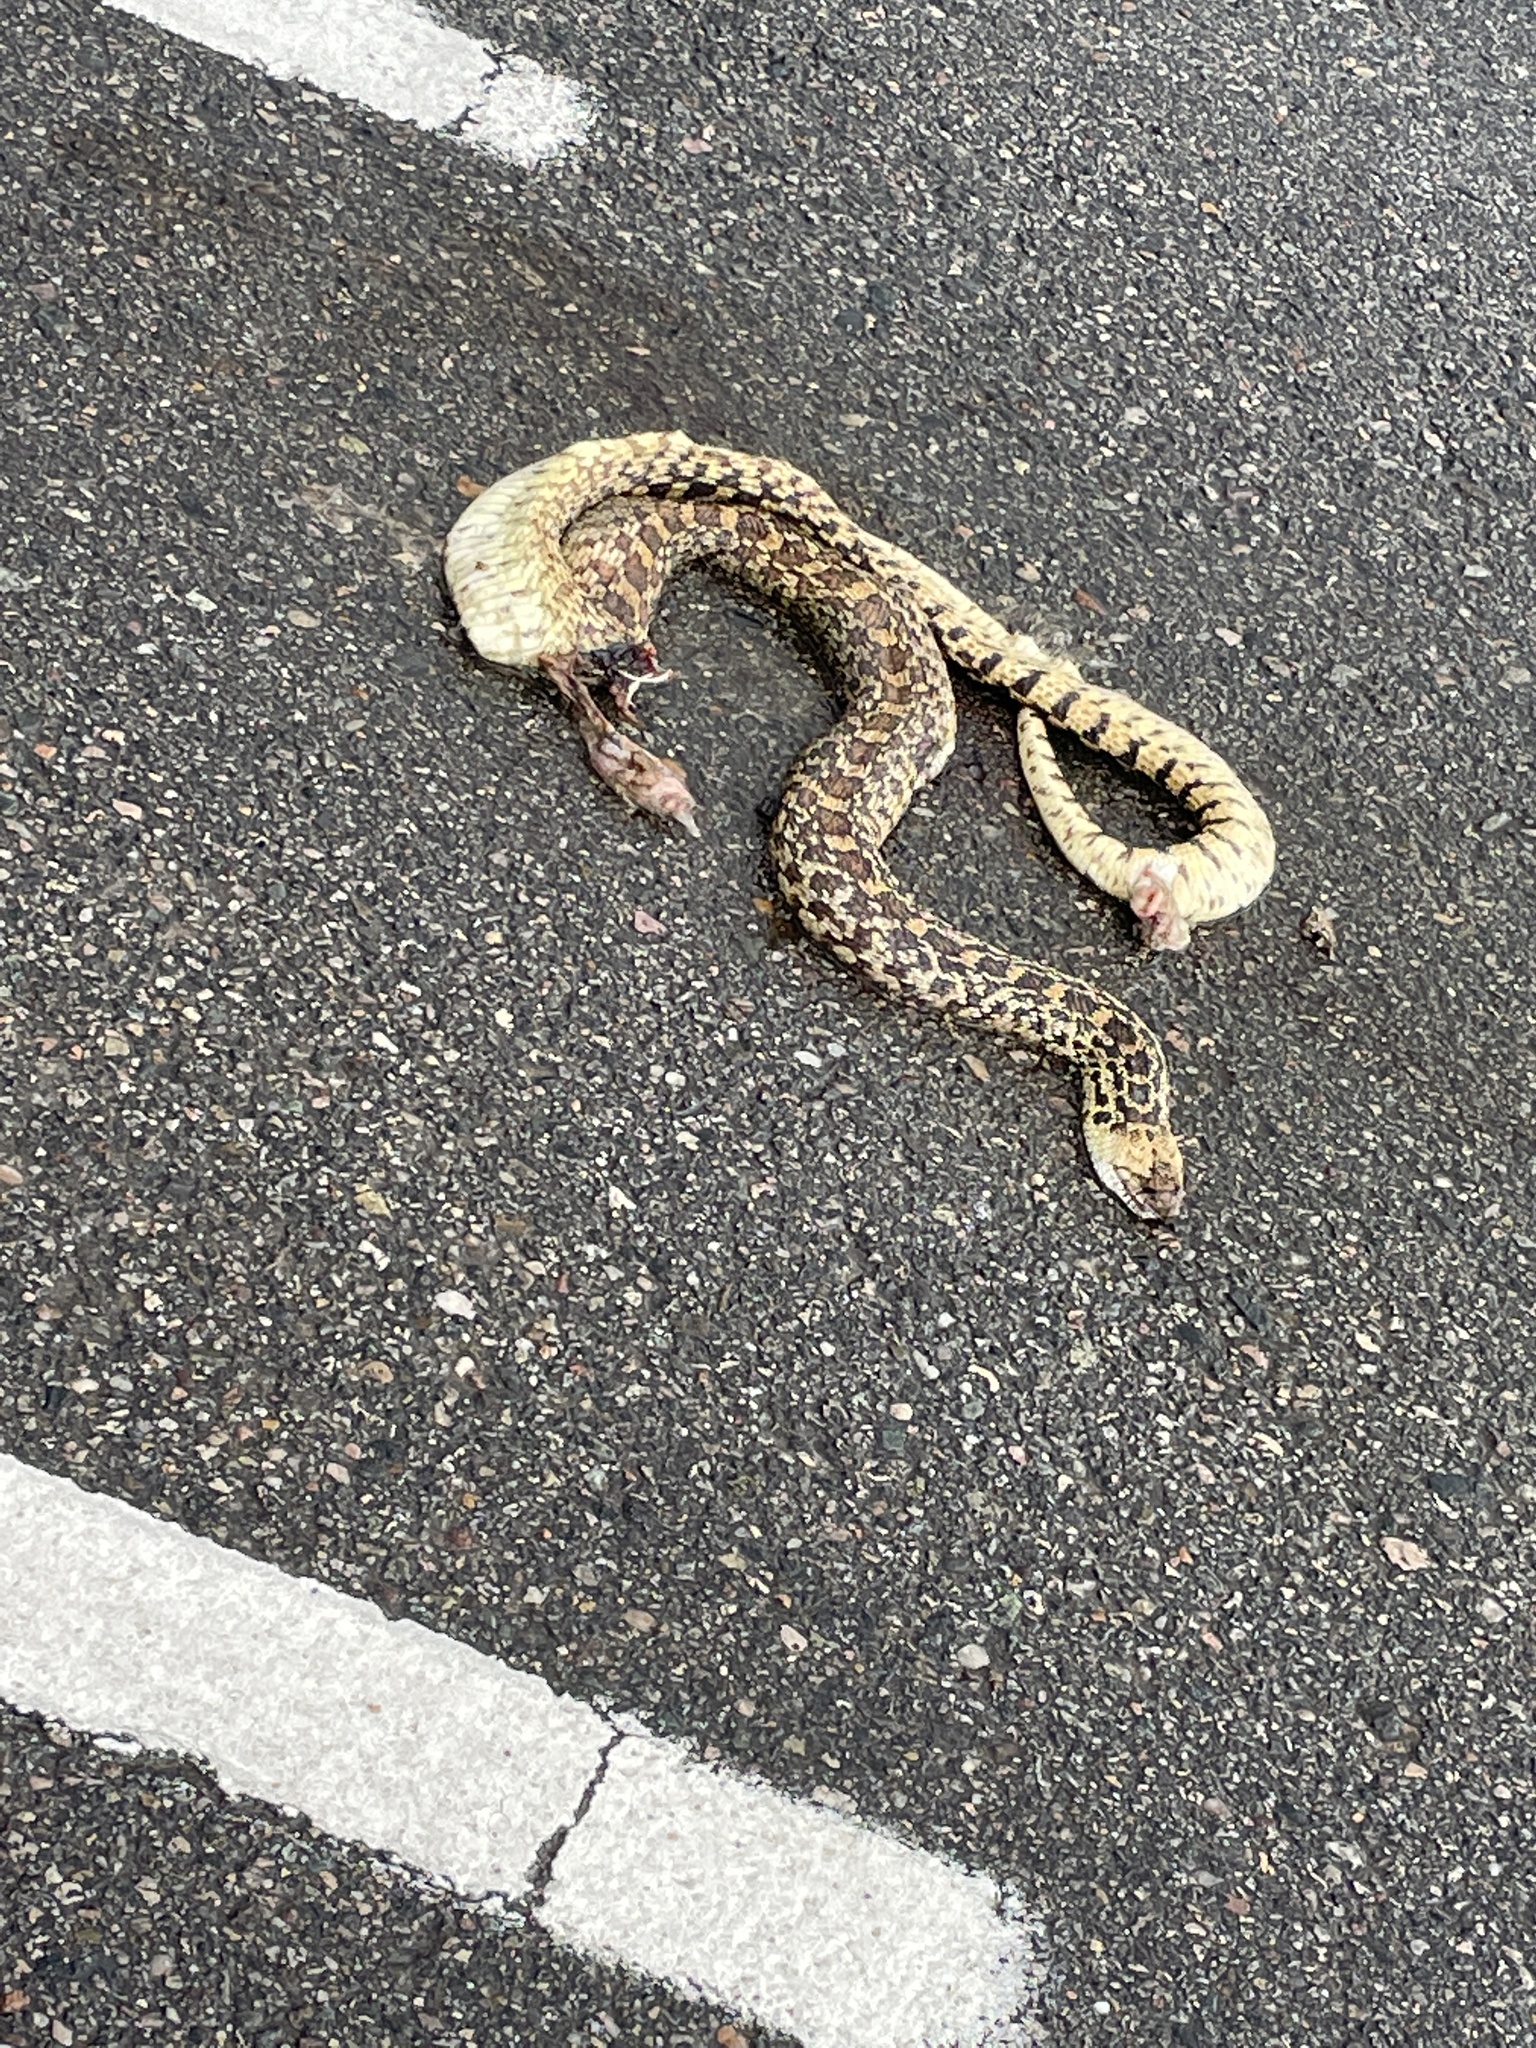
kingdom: Animalia
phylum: Chordata
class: Squamata
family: Colubridae
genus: Pituophis
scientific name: Pituophis catenifer
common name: Gopher snake
